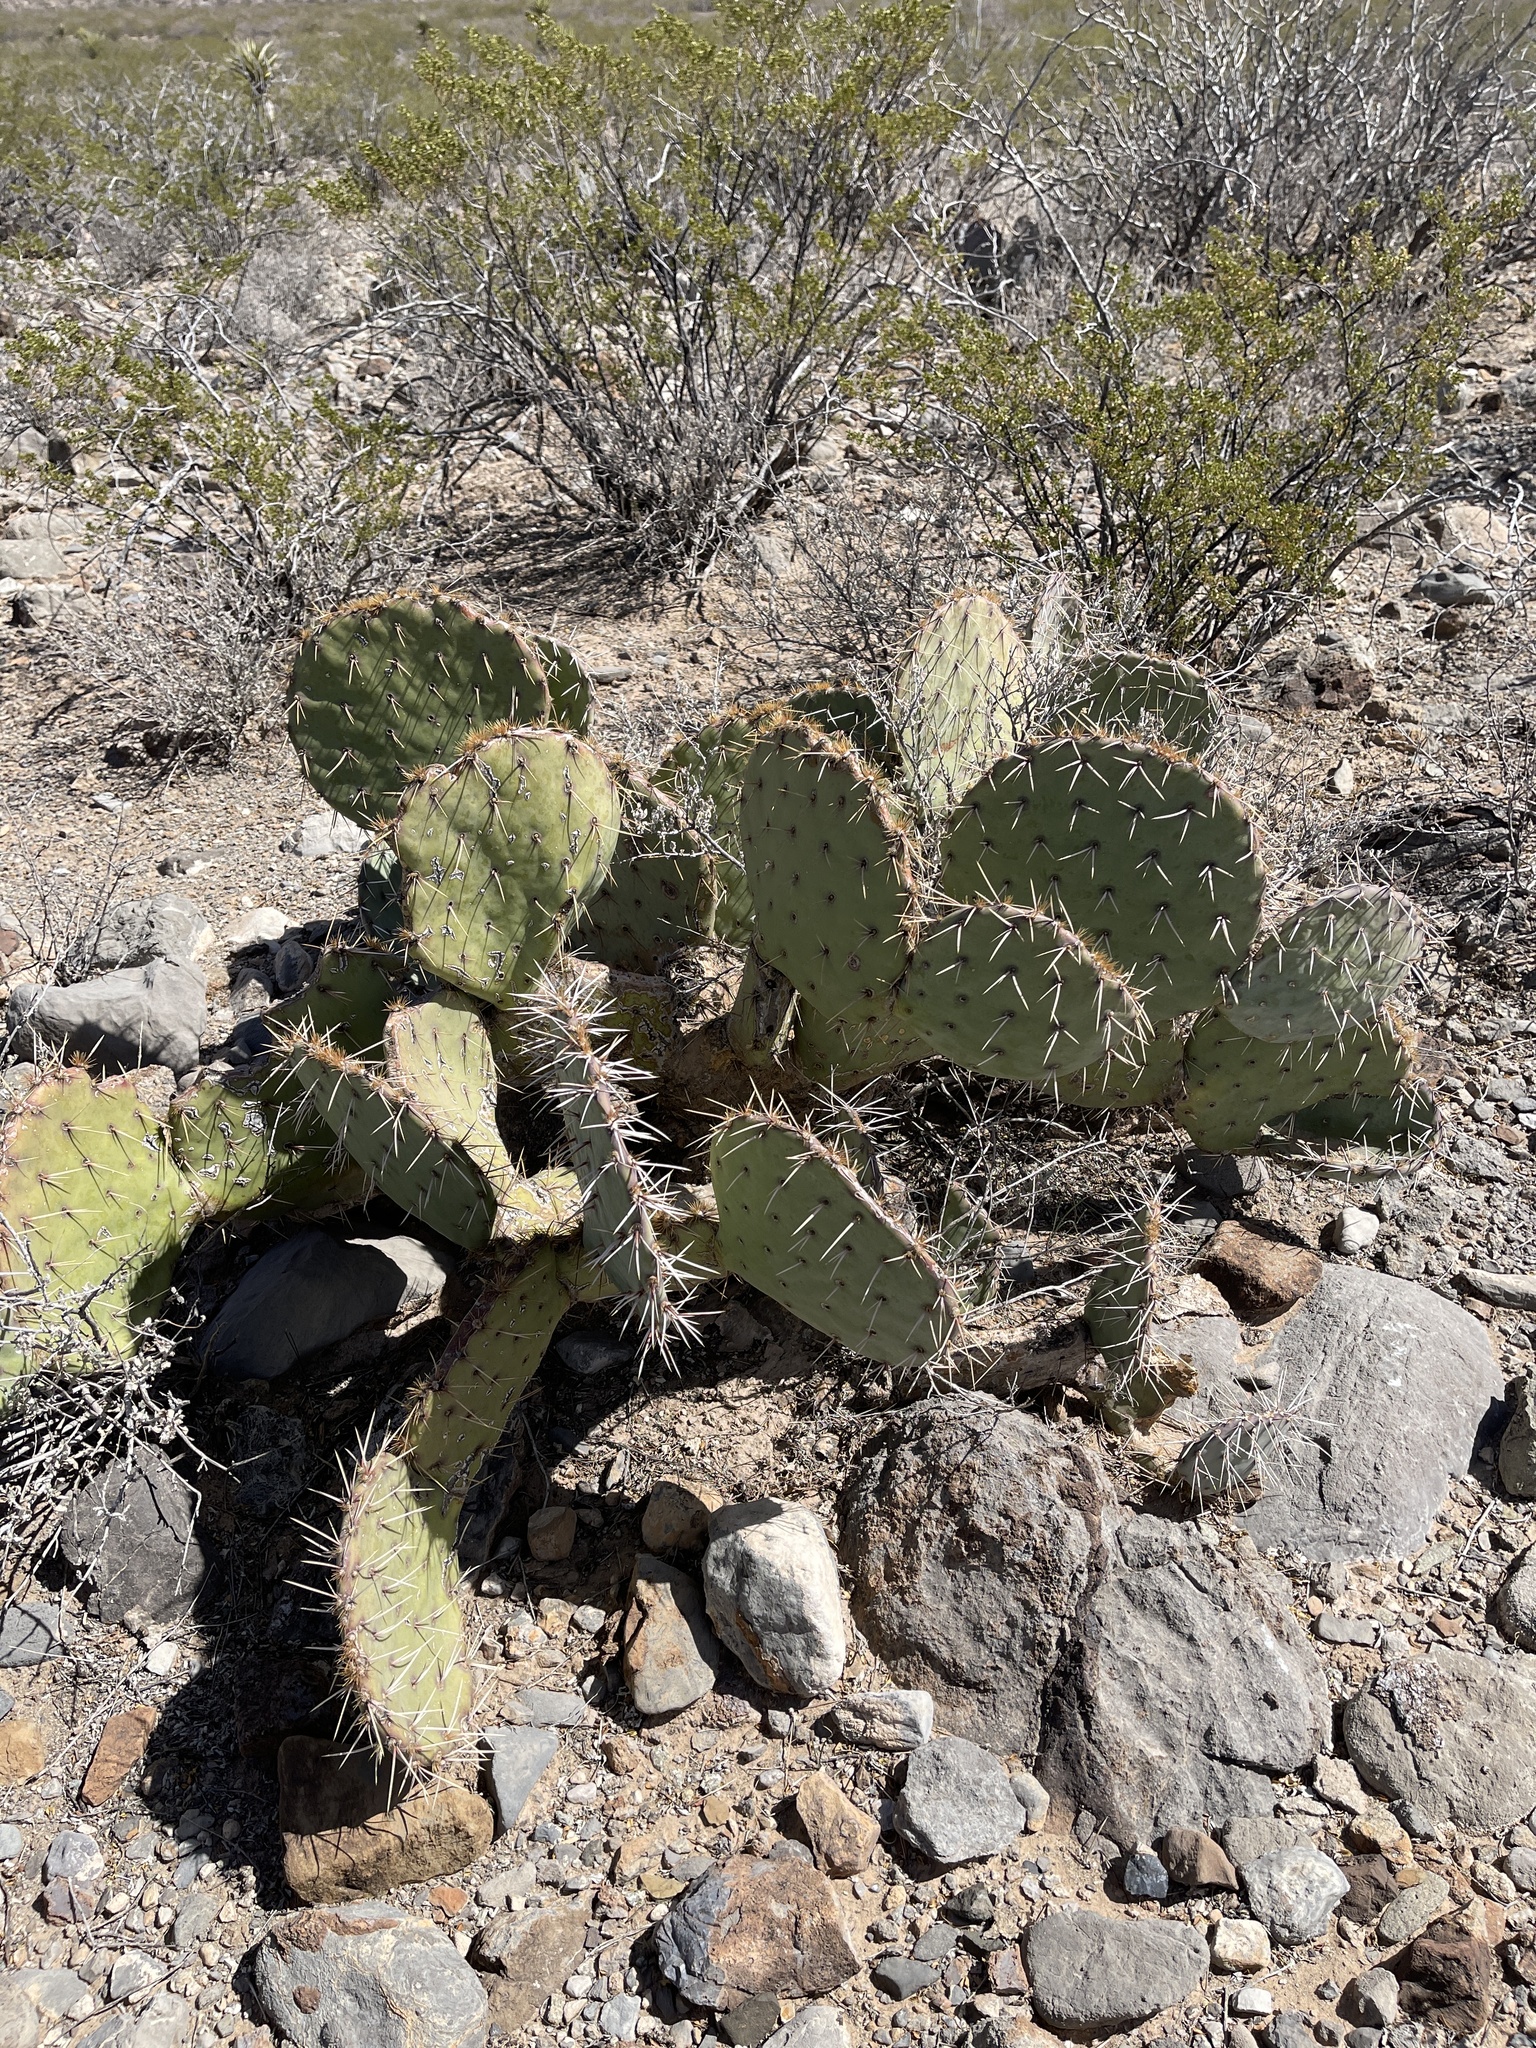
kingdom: Plantae
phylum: Tracheophyta
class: Magnoliopsida
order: Caryophyllales
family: Cactaceae
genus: Opuntia
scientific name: Opuntia engelmannii
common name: Cactus-apple
